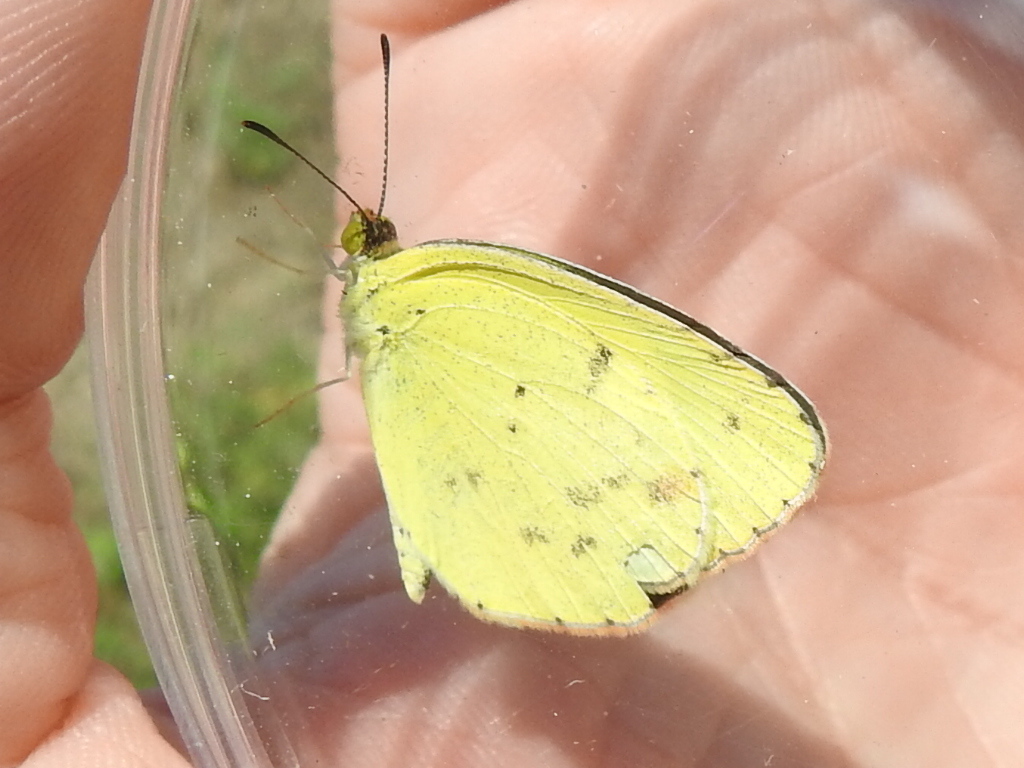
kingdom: Animalia
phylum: Arthropoda
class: Insecta
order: Lepidoptera
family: Pieridae
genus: Pyrisitia
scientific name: Pyrisitia lisa
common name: Little yellow
